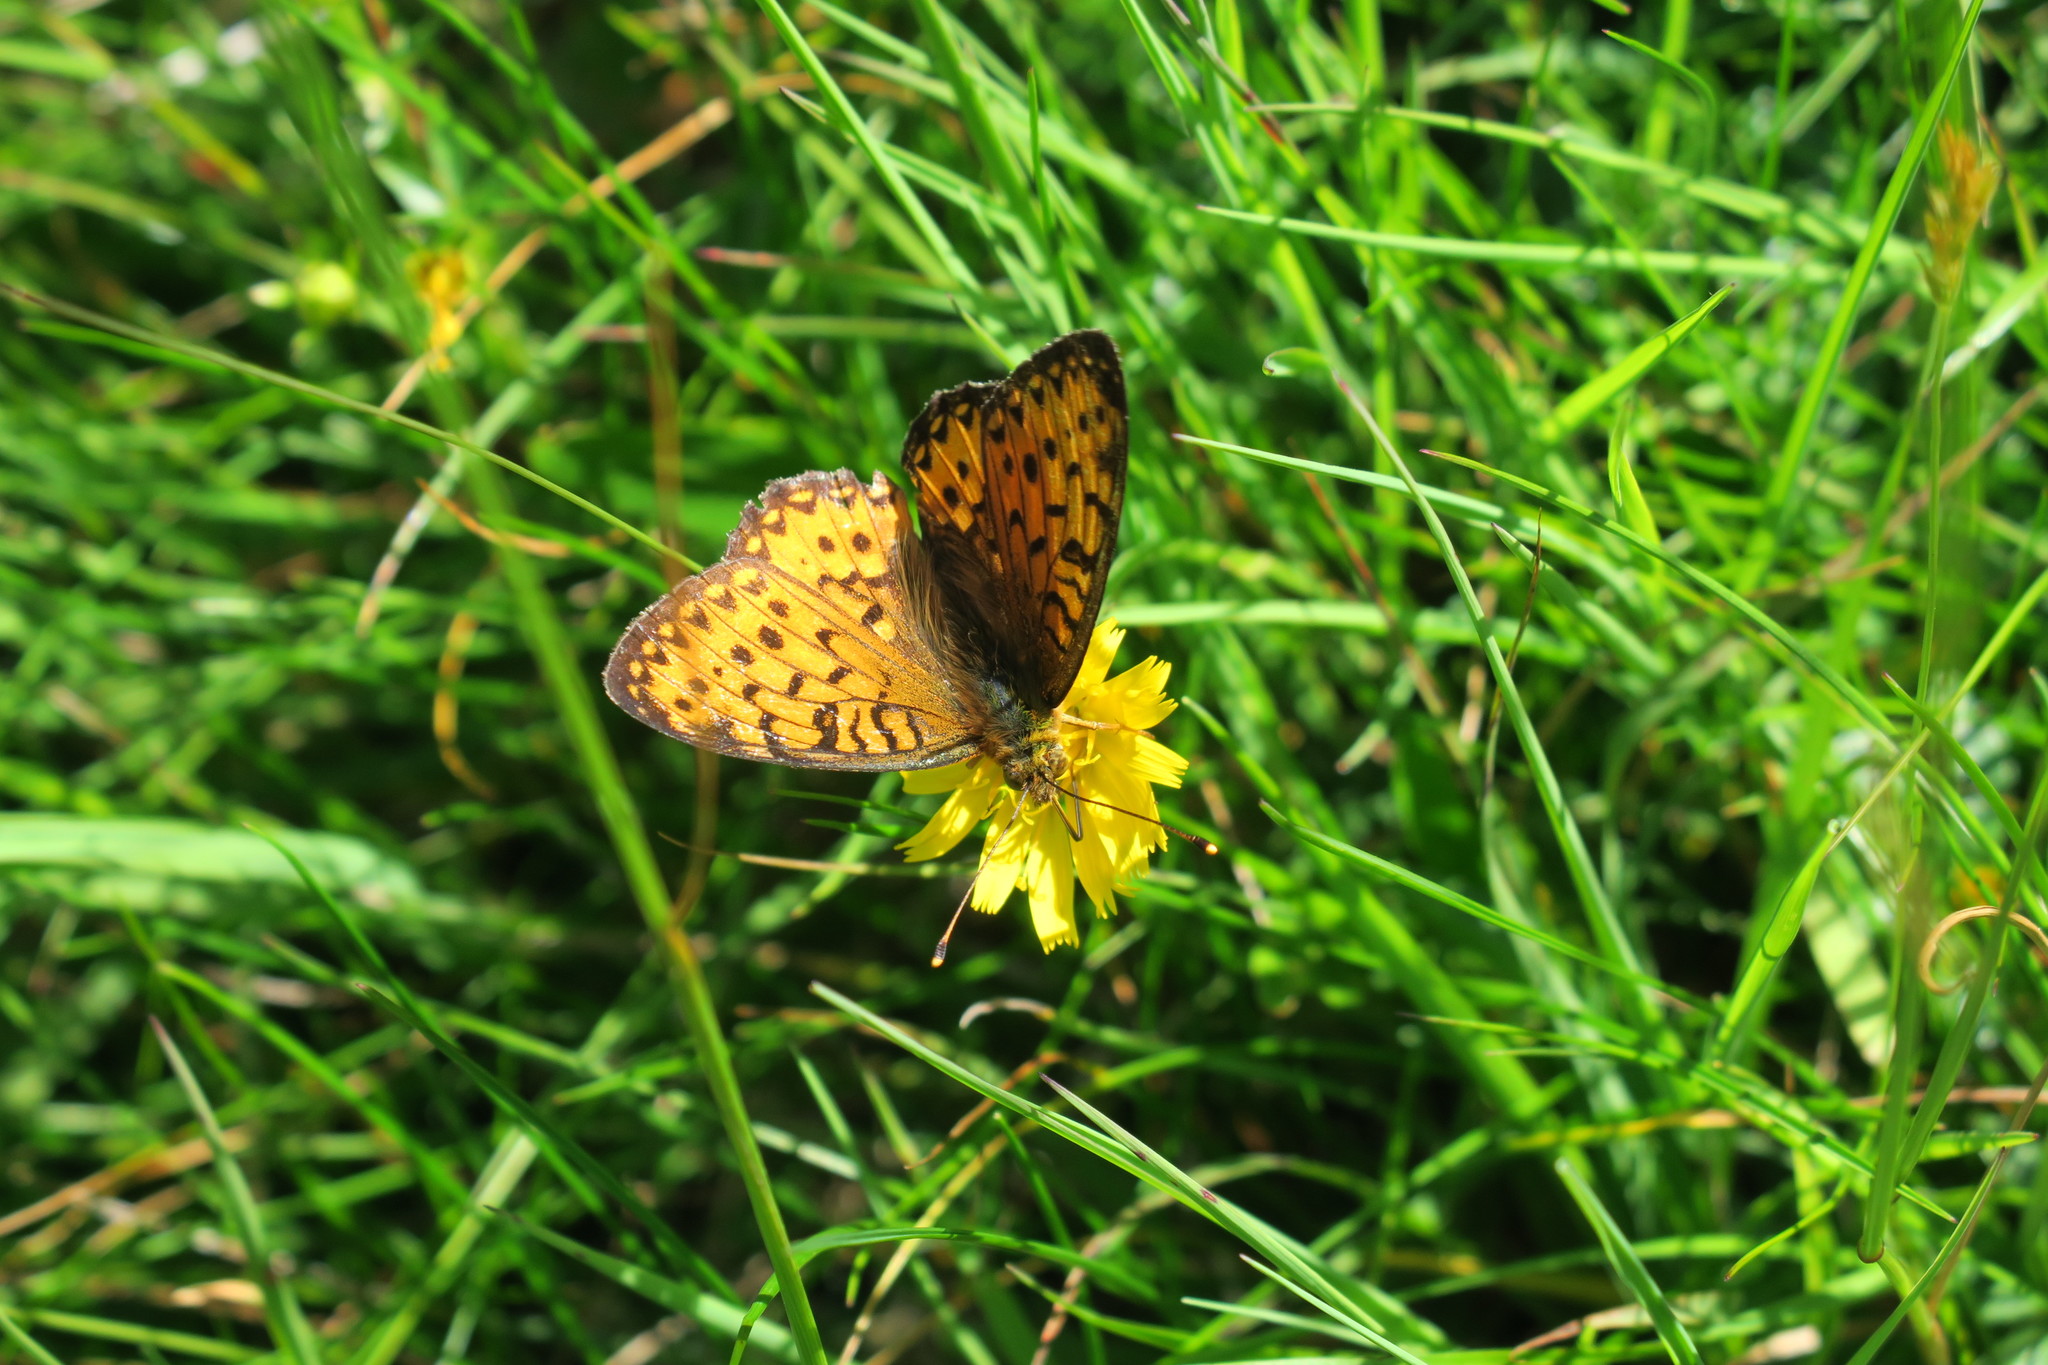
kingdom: Animalia
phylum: Arthropoda
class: Insecta
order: Lepidoptera
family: Nymphalidae
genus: Speyeria
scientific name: Speyeria aglaja
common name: Dark green fritillary
